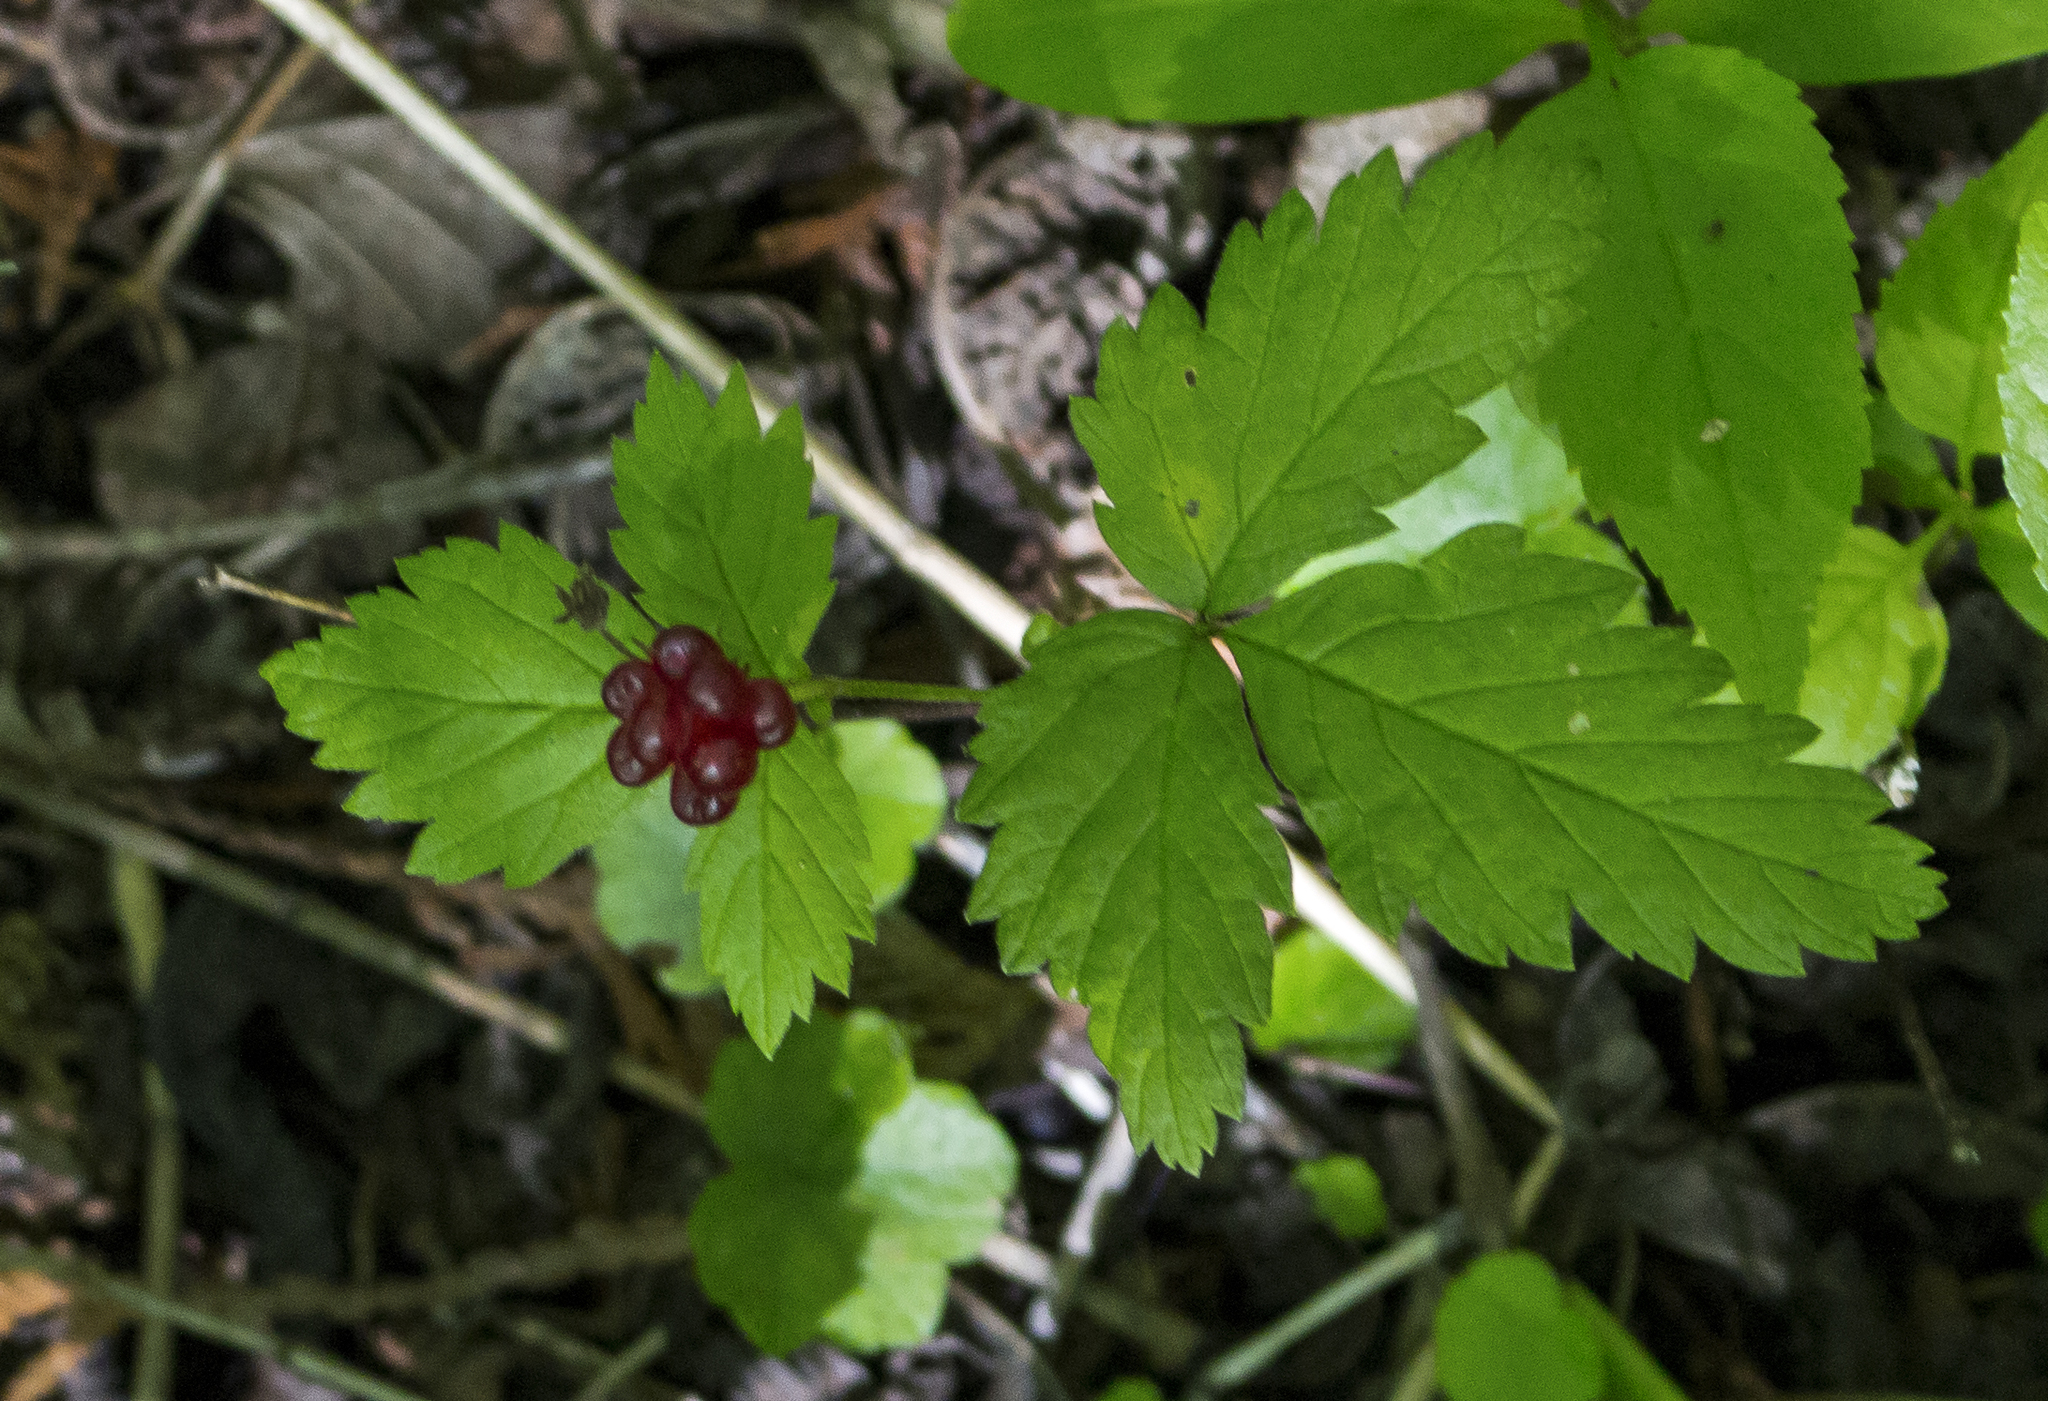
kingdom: Plantae
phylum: Tracheophyta
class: Magnoliopsida
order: Rosales
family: Rosaceae
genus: Rubus
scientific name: Rubus pubescens
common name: Dwarf raspberry
